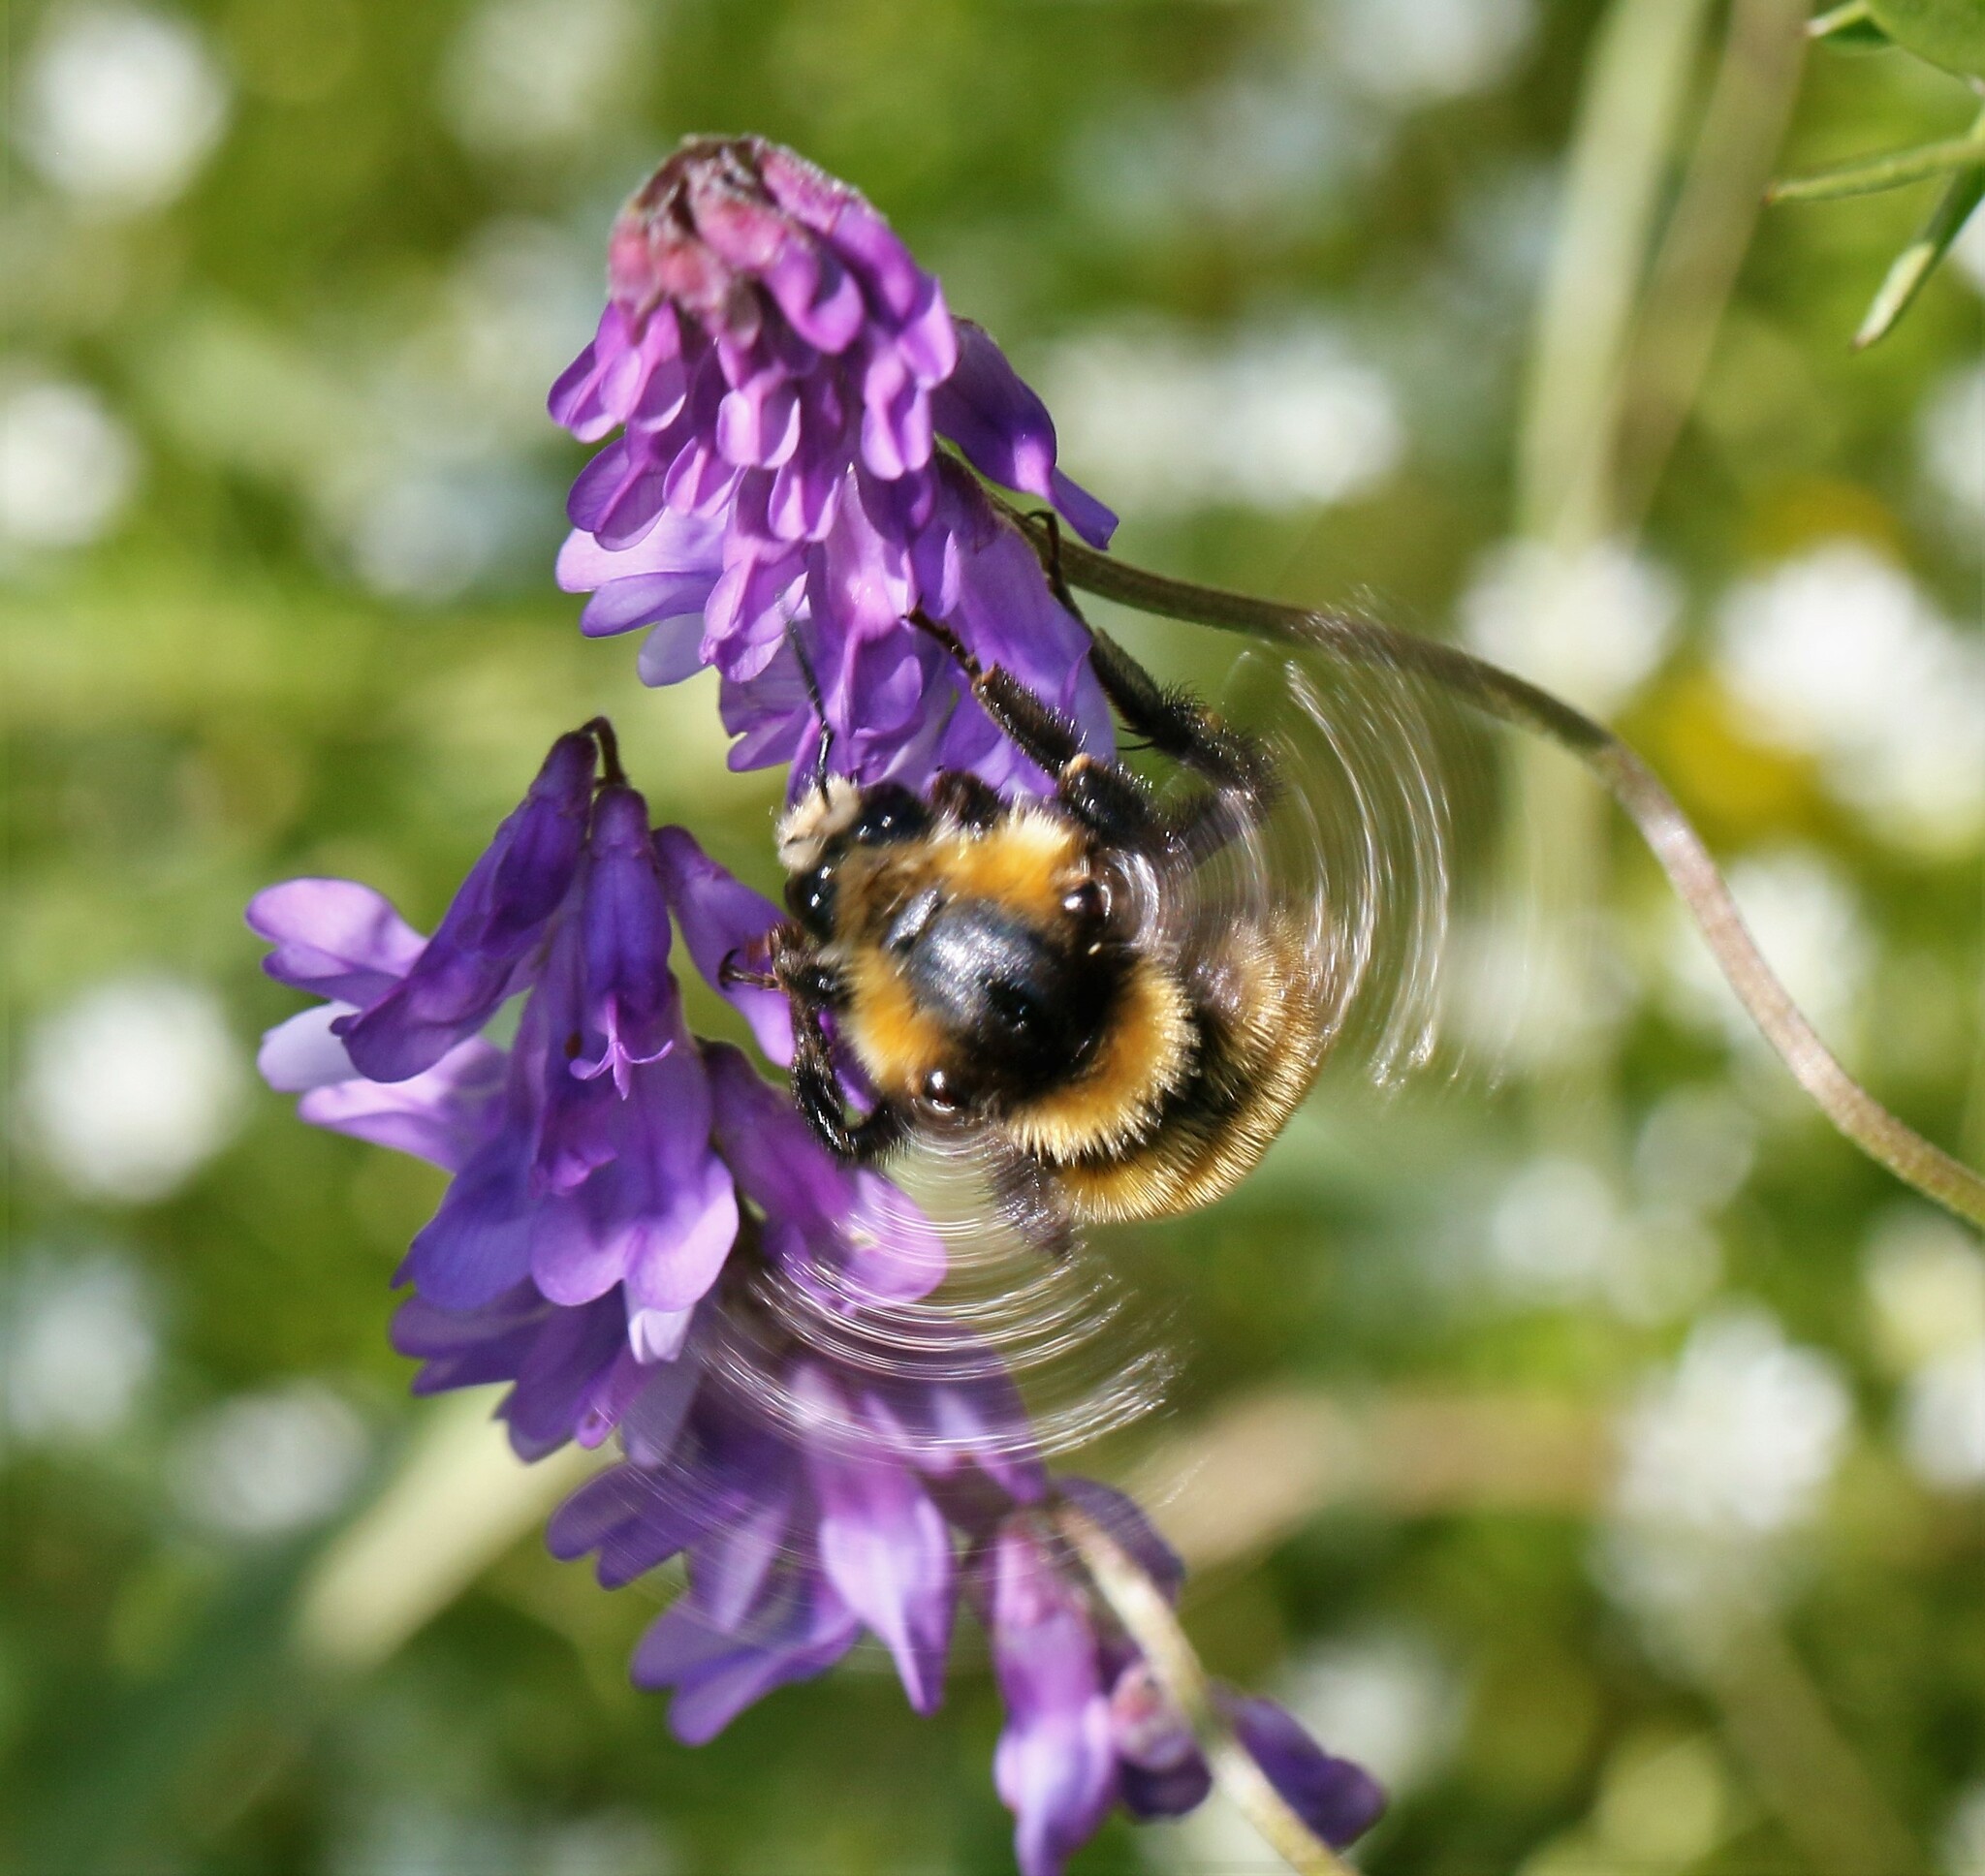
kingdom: Animalia
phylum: Arthropoda
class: Insecta
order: Hymenoptera
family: Apidae
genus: Bombus
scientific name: Bombus borealis
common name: Northern amber bumble bee
